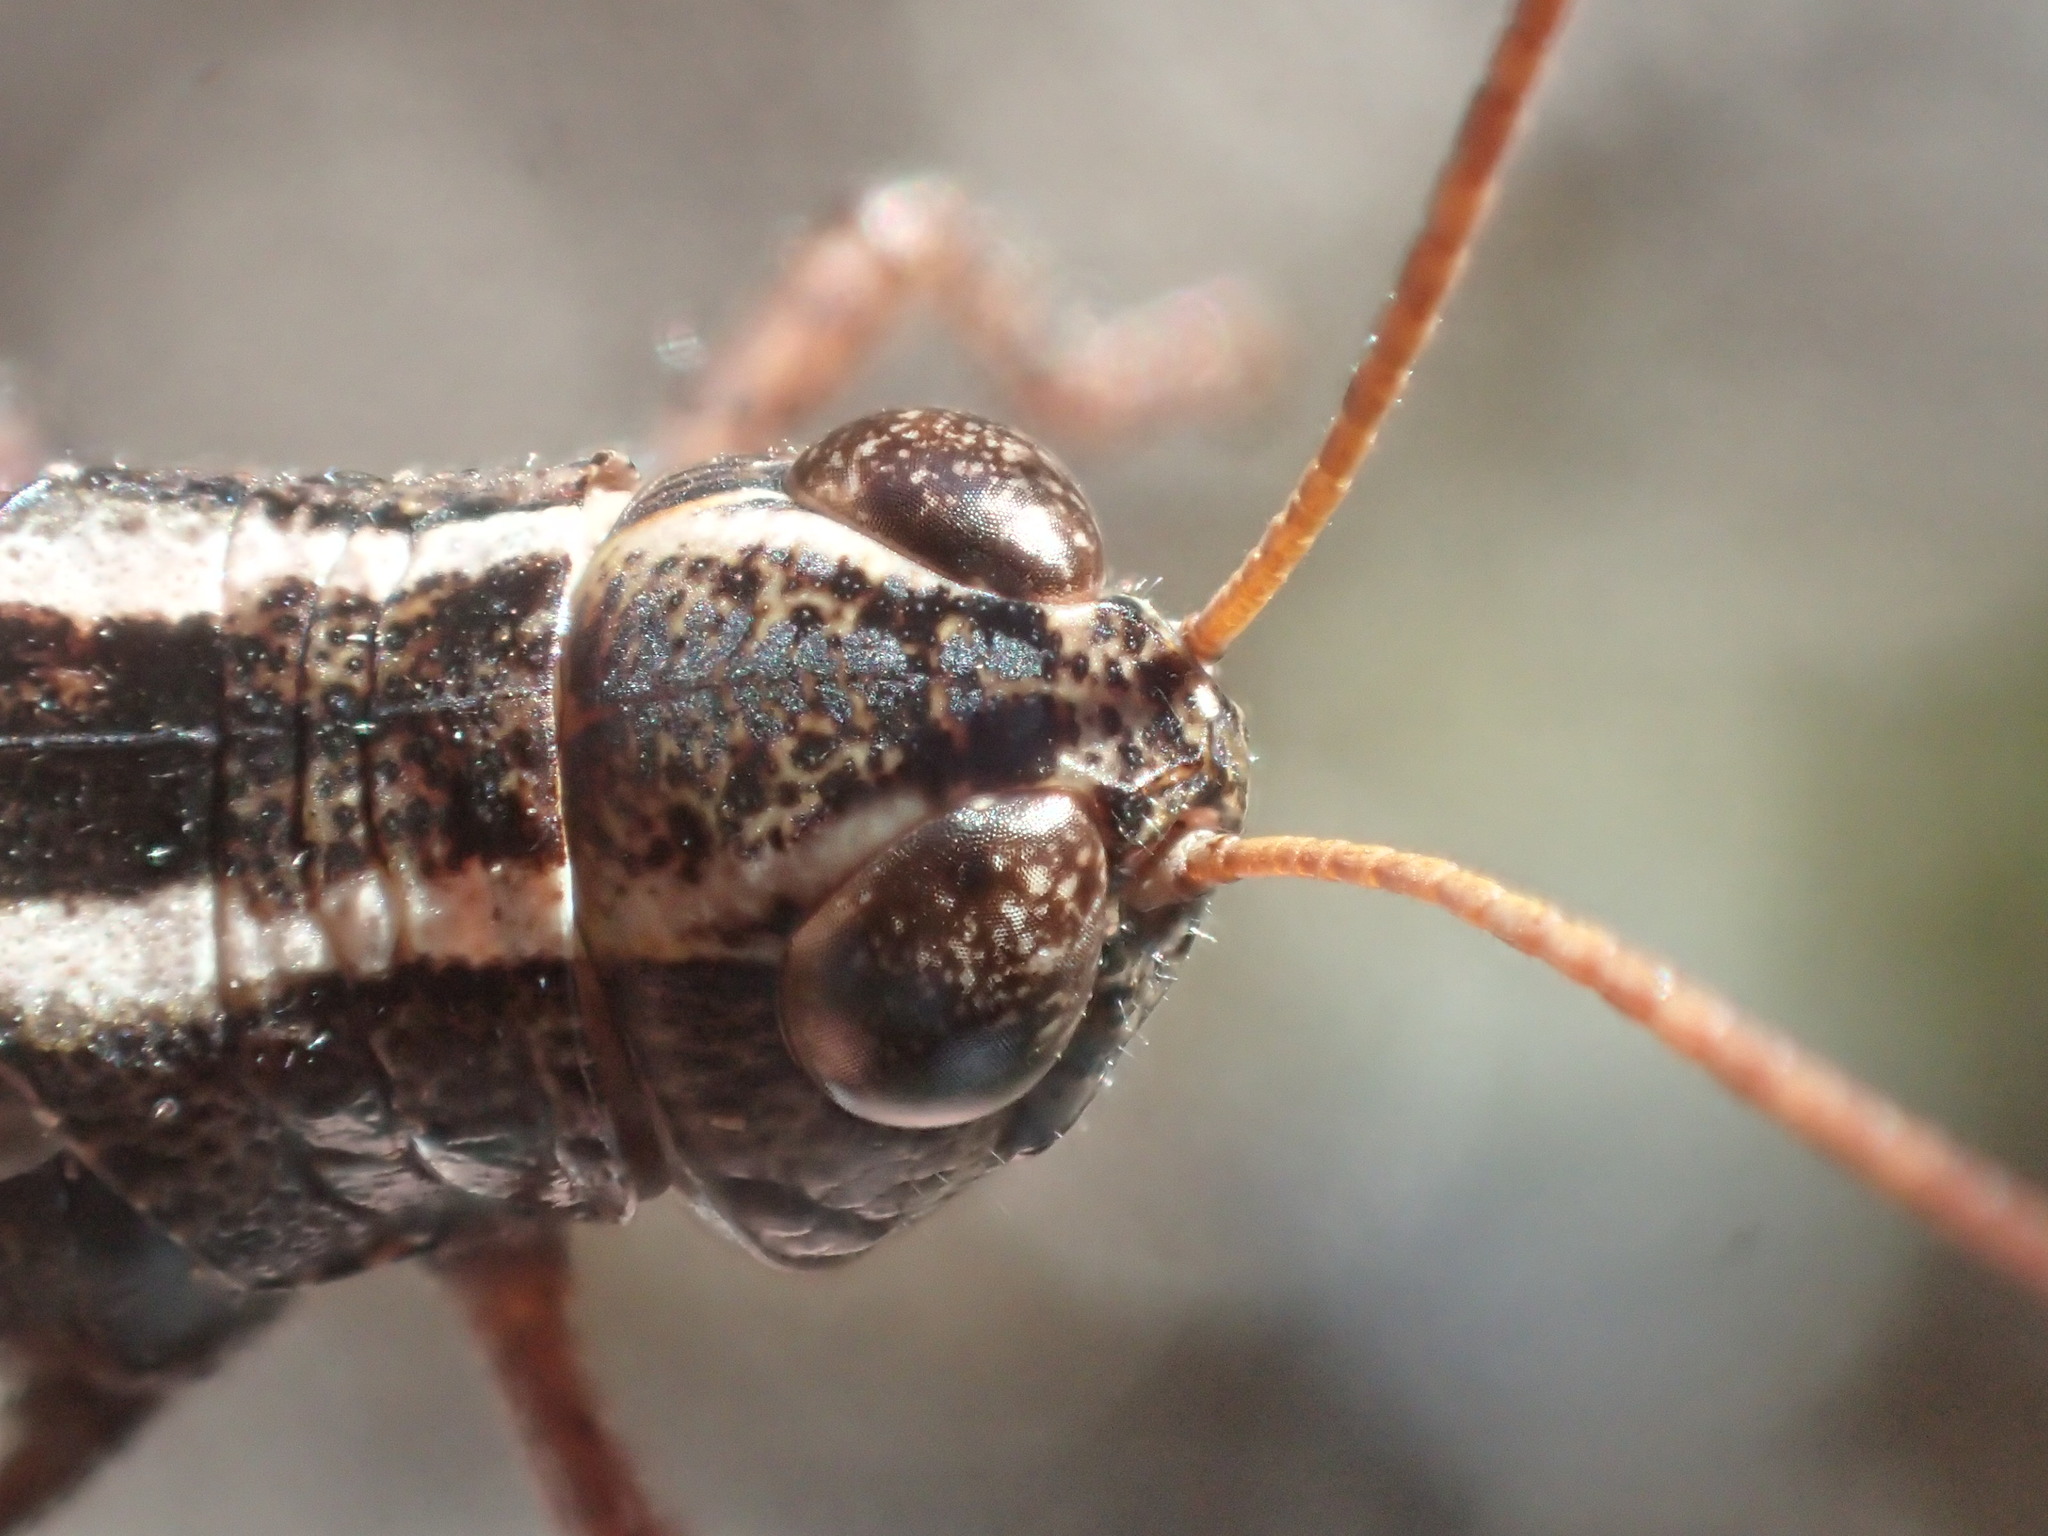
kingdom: Animalia
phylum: Arthropoda
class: Insecta
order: Orthoptera
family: Acrididae
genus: Exarna
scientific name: Exarna includens
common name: Red-legged exarna
